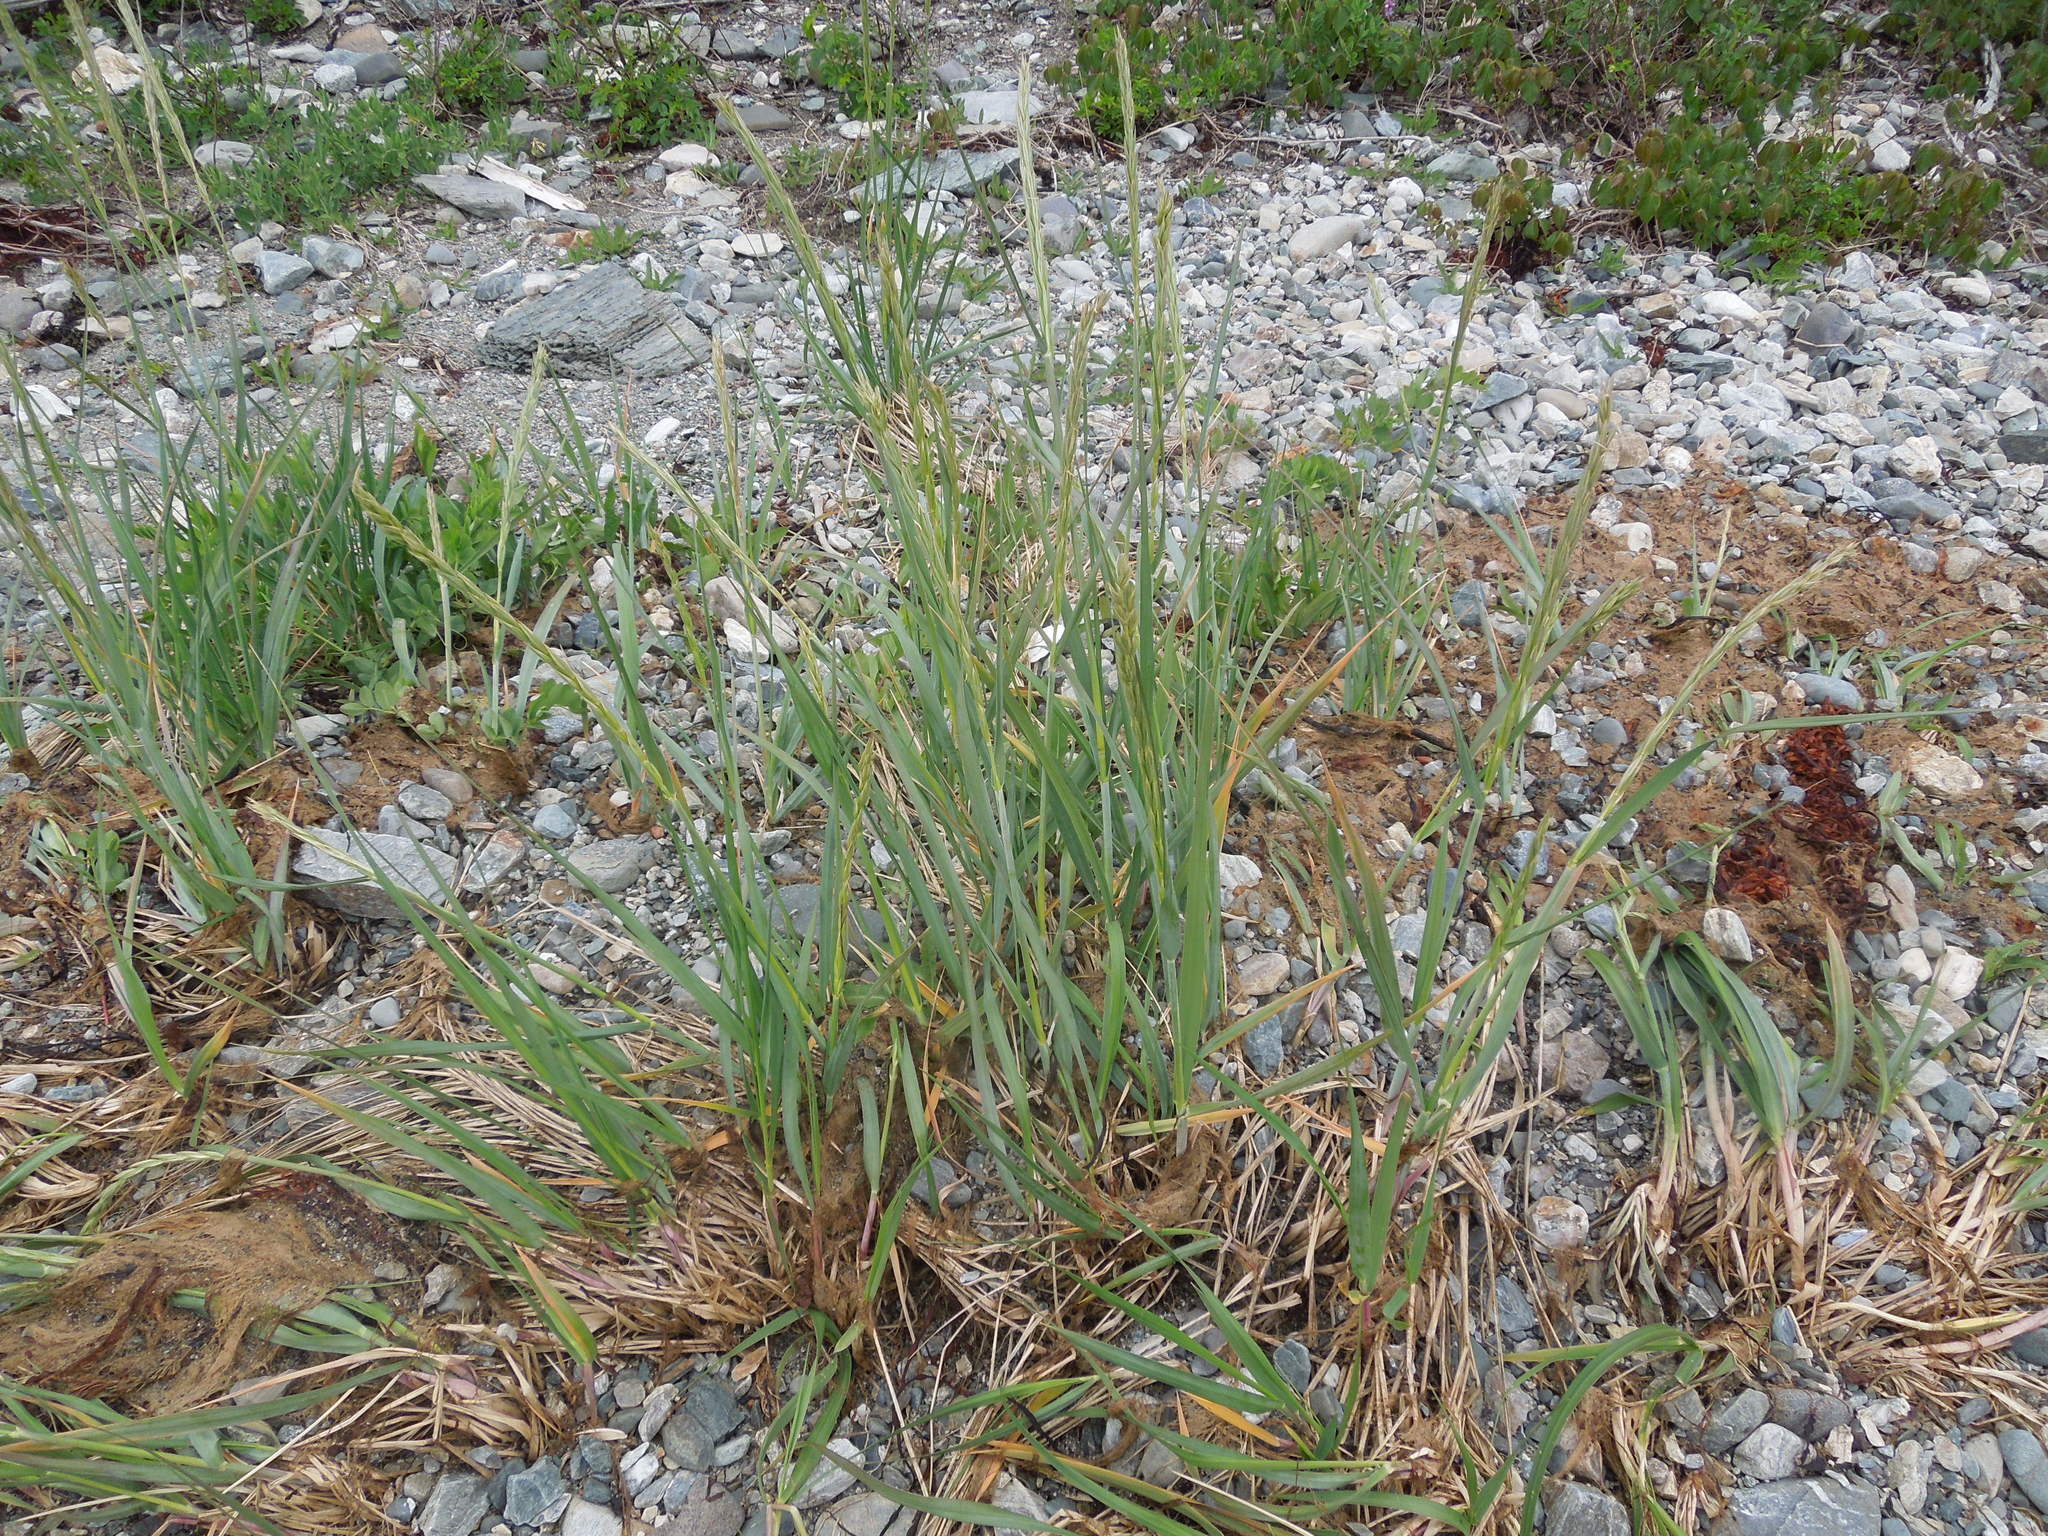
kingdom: Plantae
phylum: Tracheophyta
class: Liliopsida
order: Poales
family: Poaceae
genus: Leymus
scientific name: Leymus mollis
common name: American dune grass
